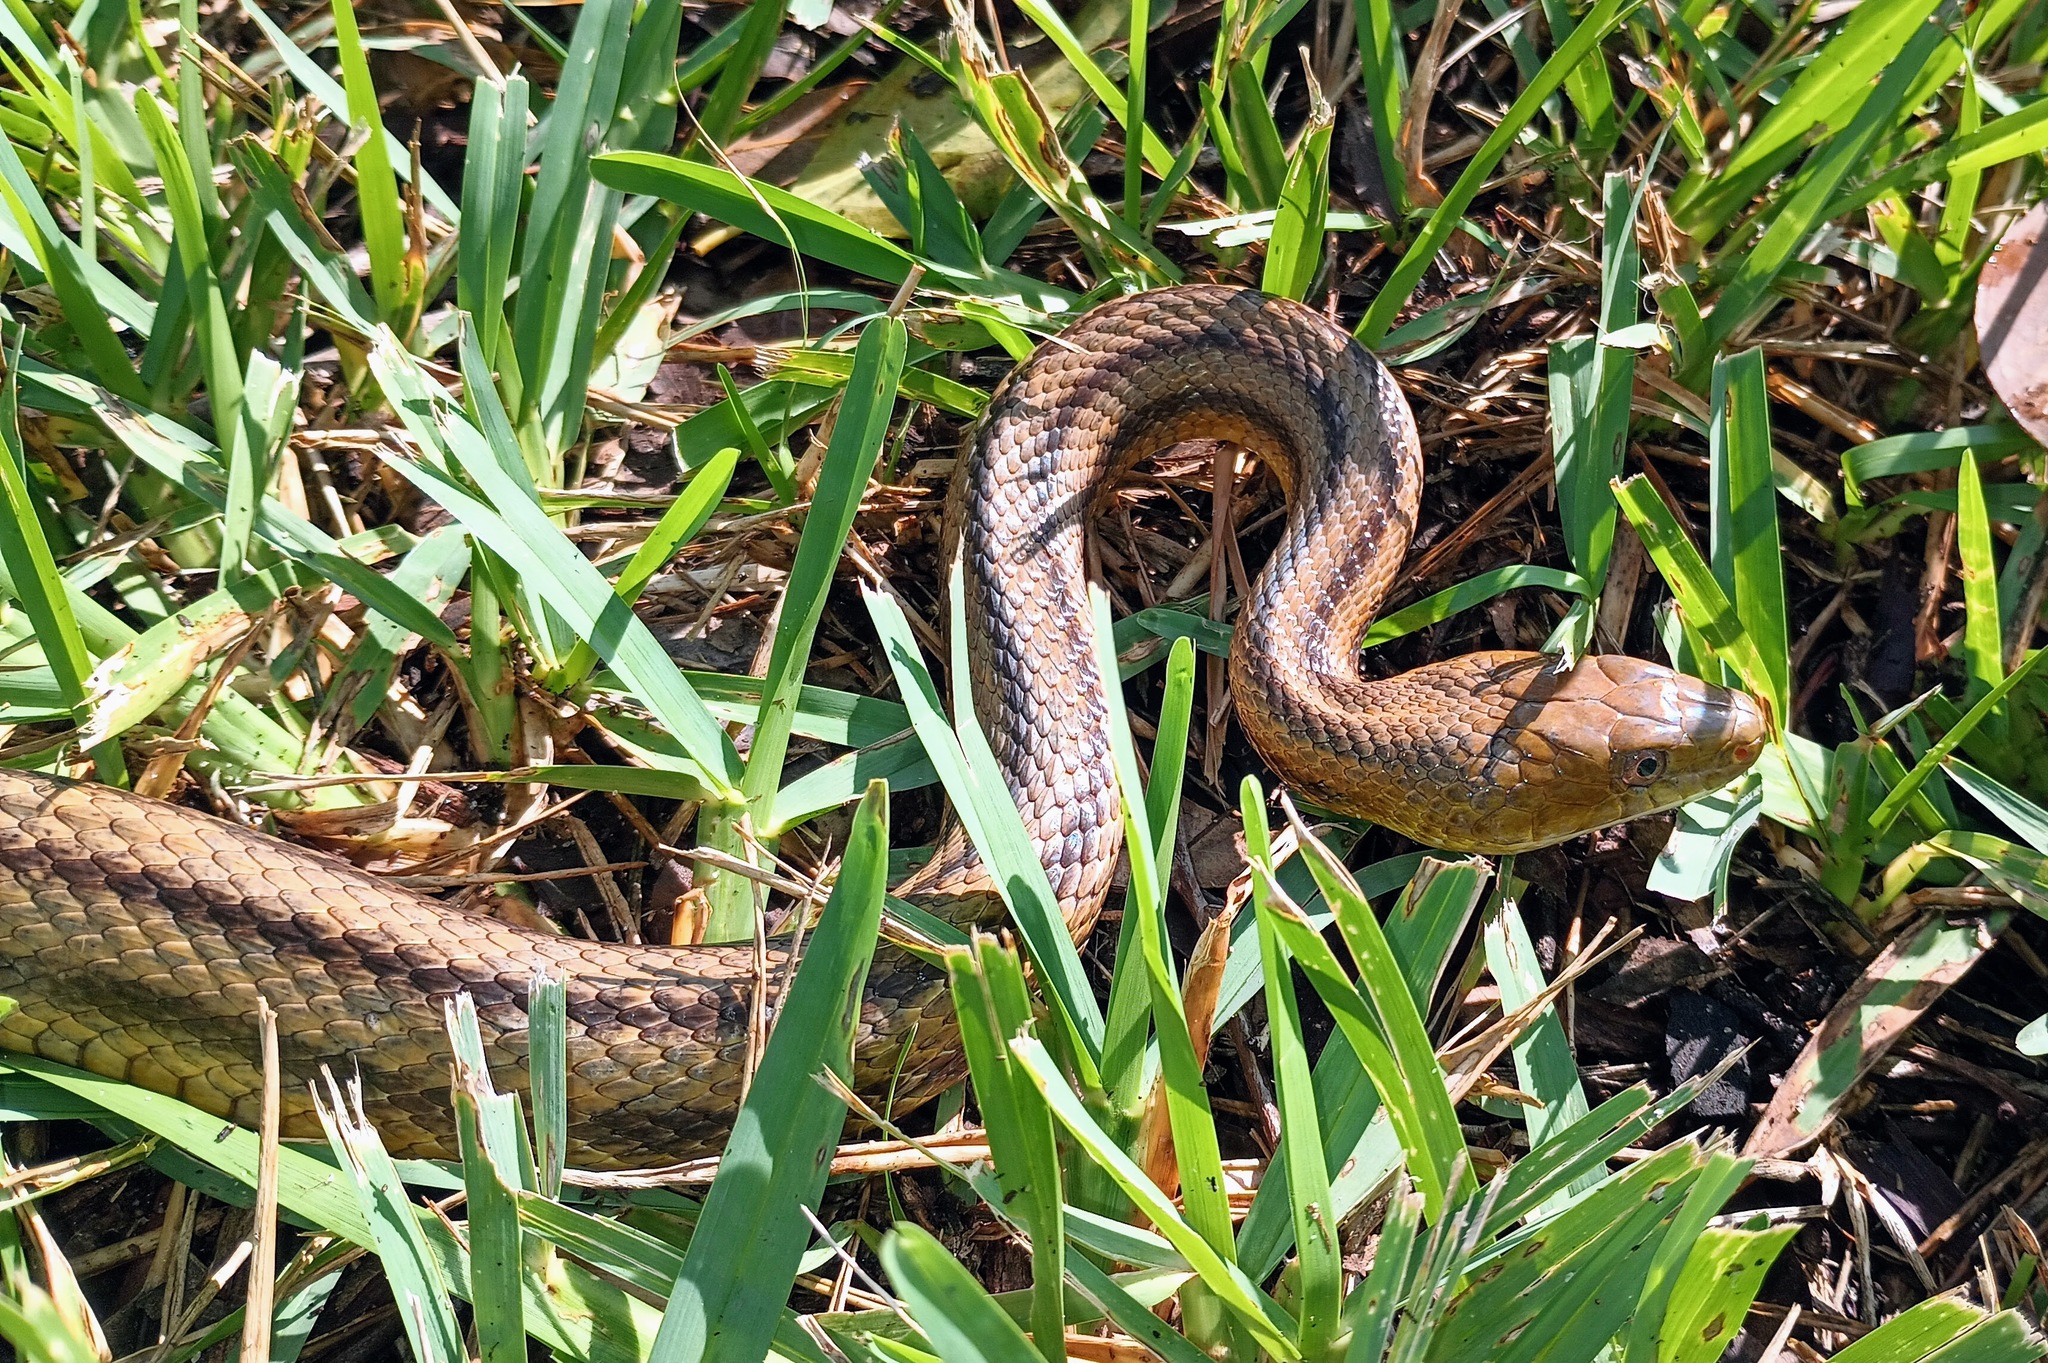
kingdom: Animalia
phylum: Chordata
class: Squamata
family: Colubridae
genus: Pantherophis
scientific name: Pantherophis alleghaniensis
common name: Eastern rat snake
